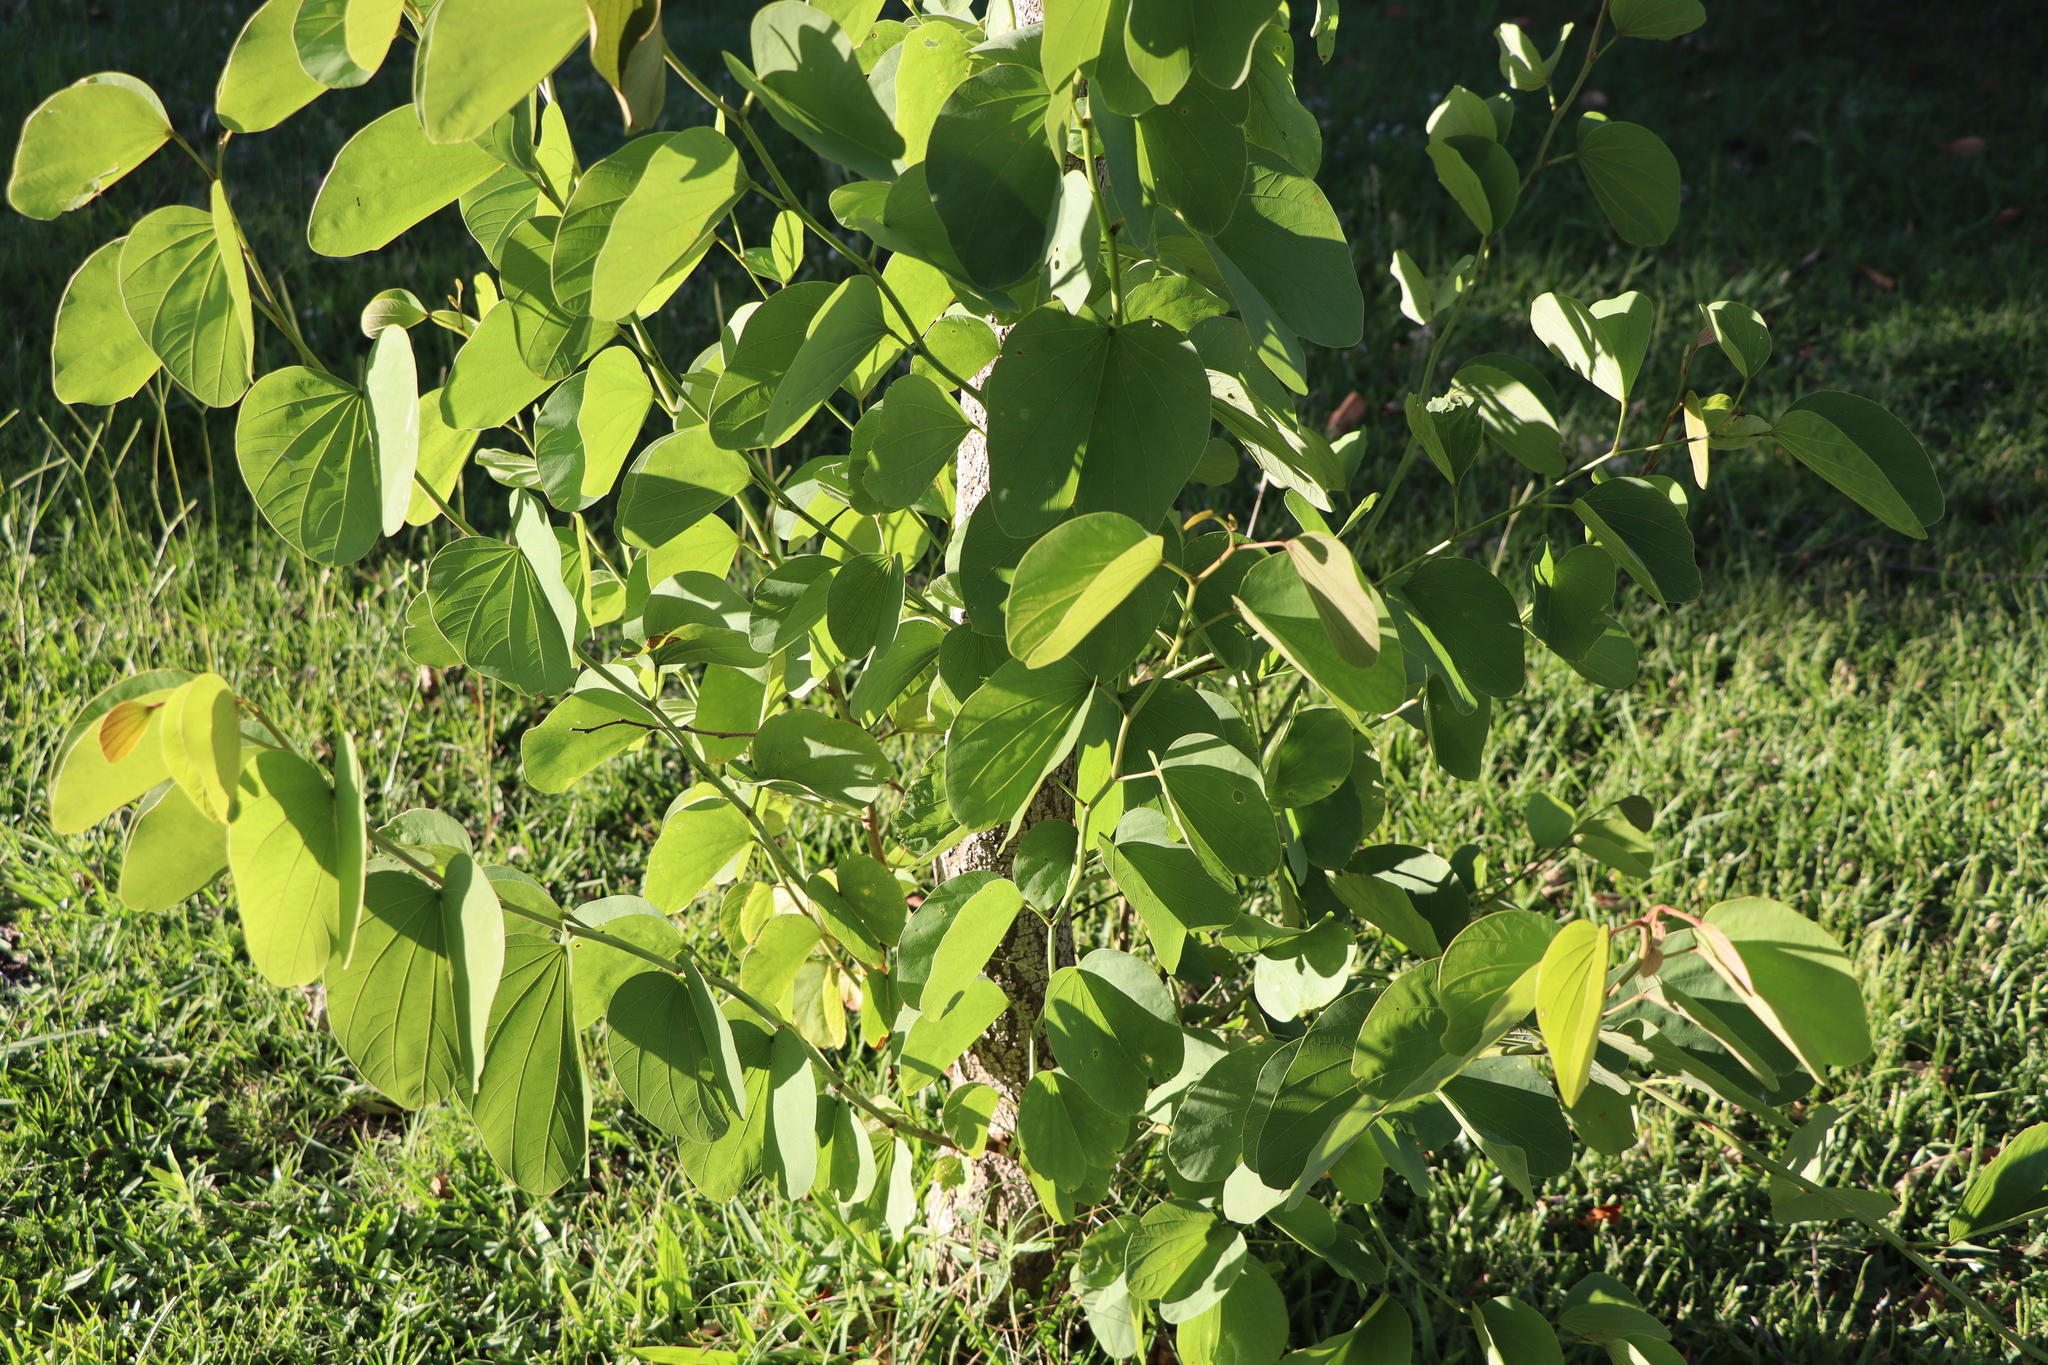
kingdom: Plantae
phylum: Tracheophyta
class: Magnoliopsida
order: Fabales
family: Fabaceae
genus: Bauhinia
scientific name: Bauhinia forficata
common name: Orchid tree
